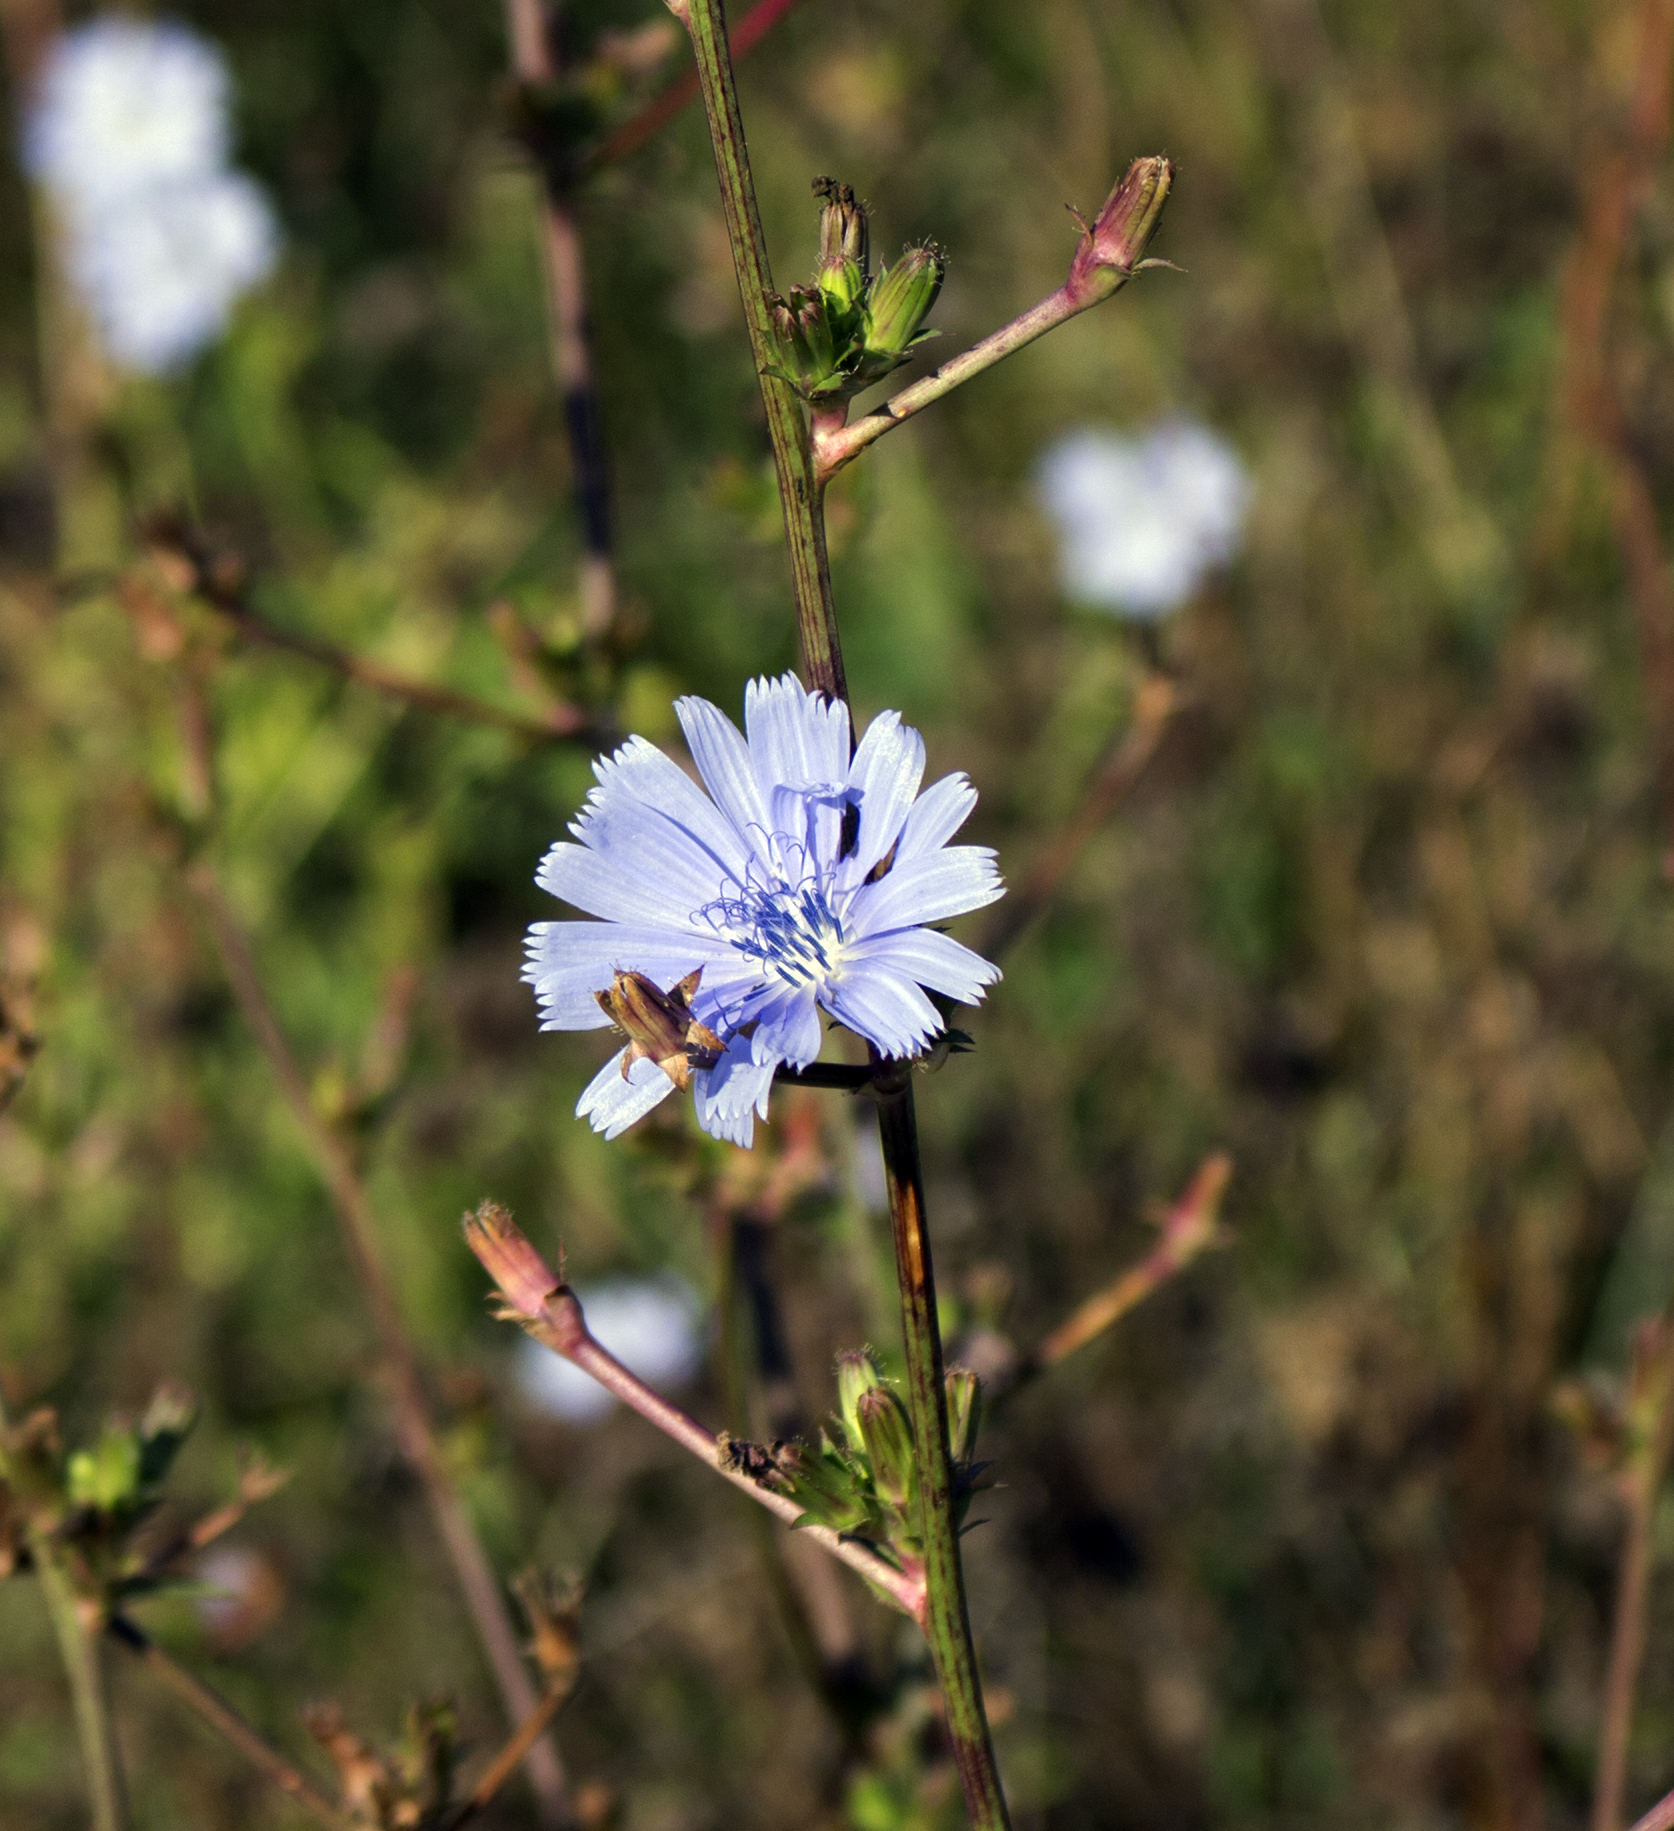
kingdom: Plantae
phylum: Tracheophyta
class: Magnoliopsida
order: Asterales
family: Asteraceae
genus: Cichorium
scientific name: Cichorium intybus
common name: Chicory
